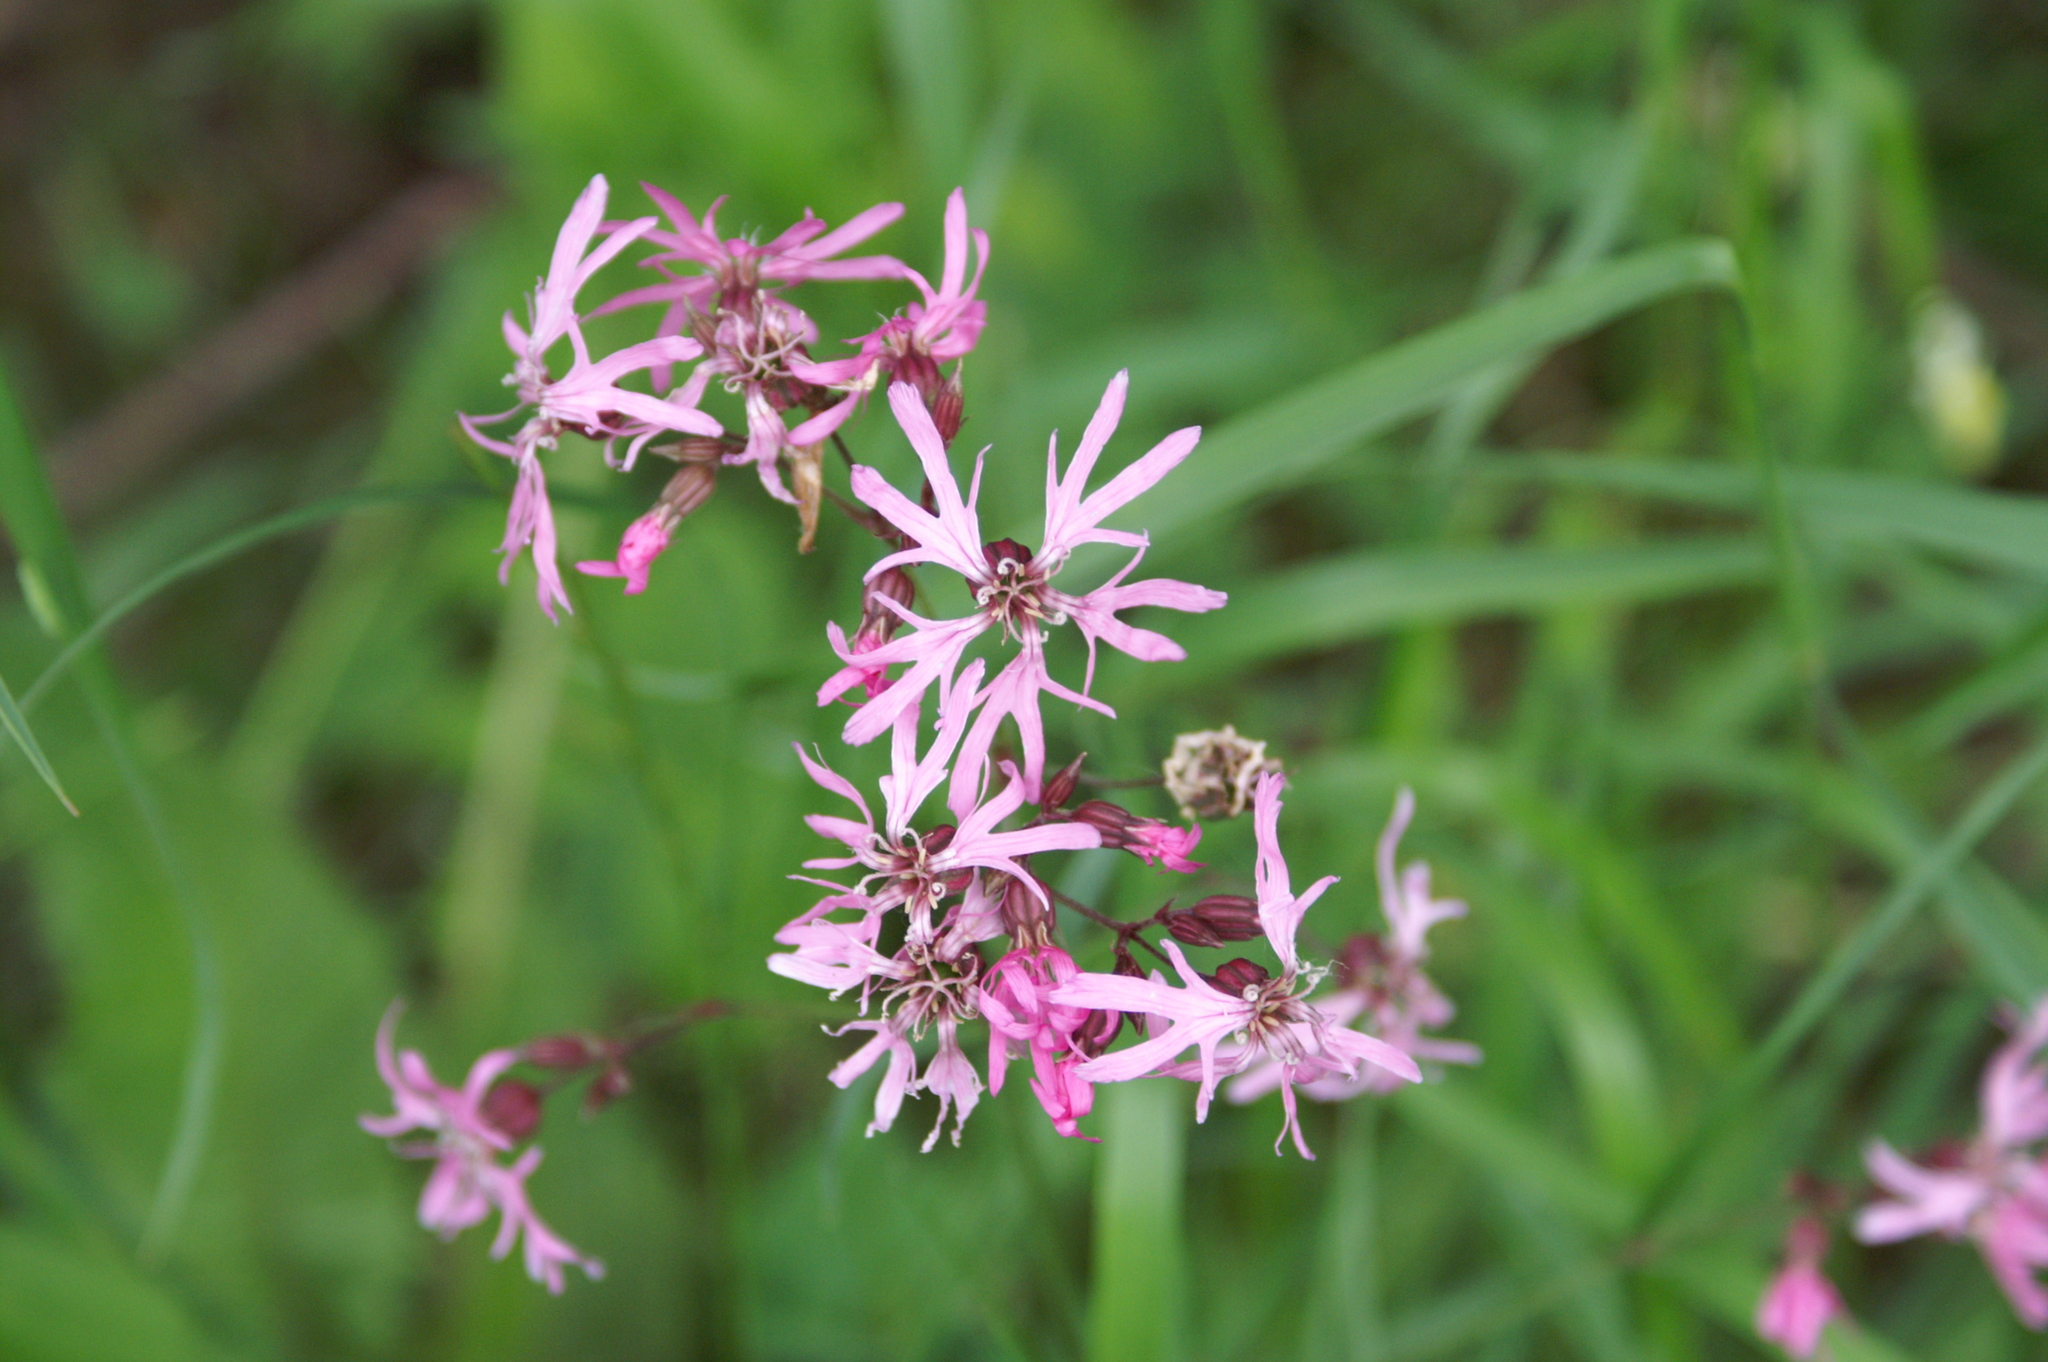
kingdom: Plantae
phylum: Tracheophyta
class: Magnoliopsida
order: Caryophyllales
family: Caryophyllaceae
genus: Silene
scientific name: Silene flos-cuculi
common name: Ragged-robin
